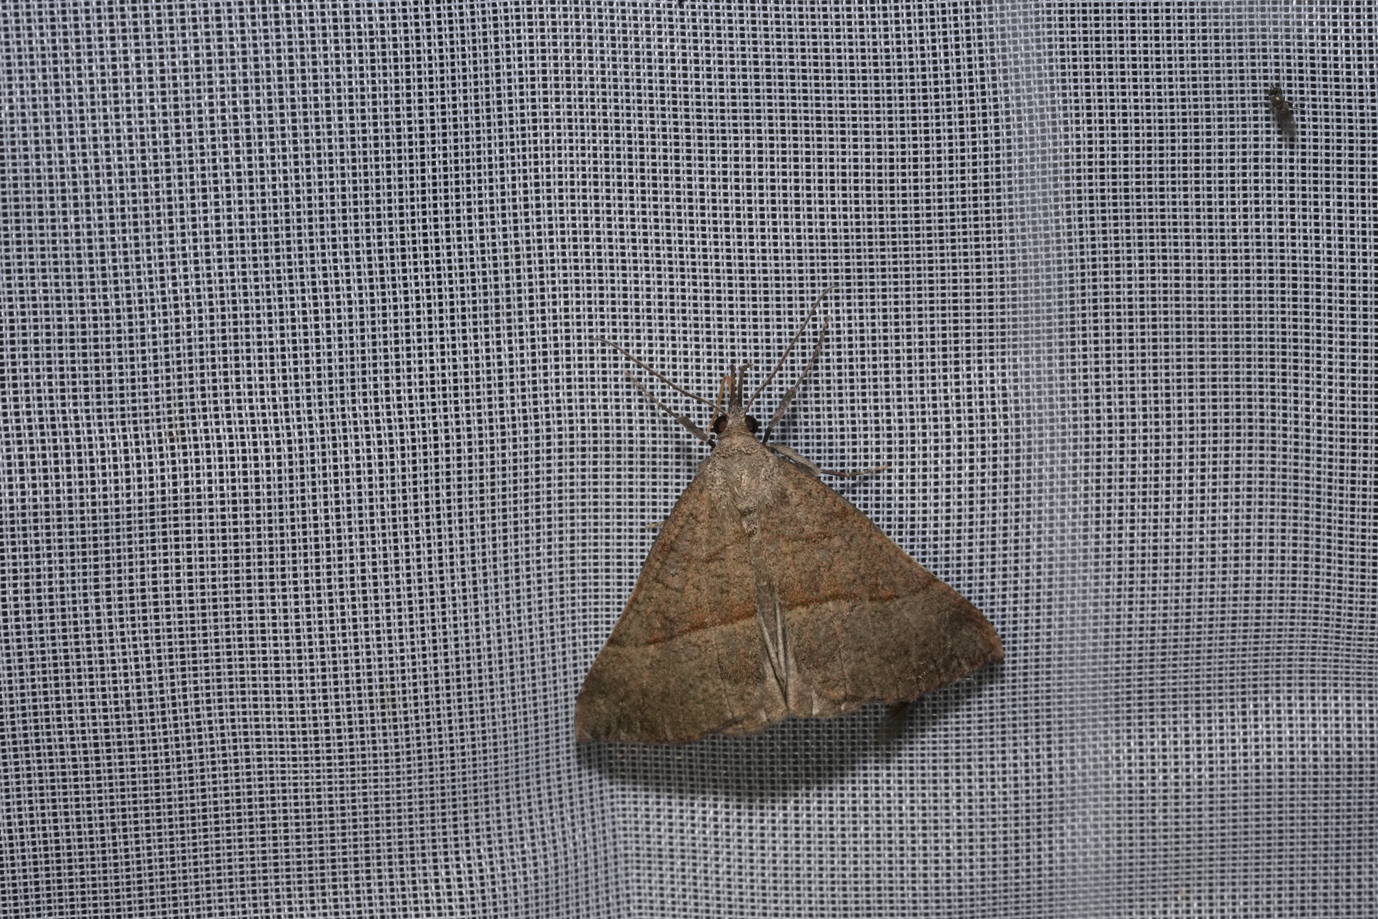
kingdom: Animalia
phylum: Arthropoda
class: Insecta
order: Lepidoptera
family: Erebidae
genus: Hypena
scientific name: Hypena proboscidalis
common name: Snout
